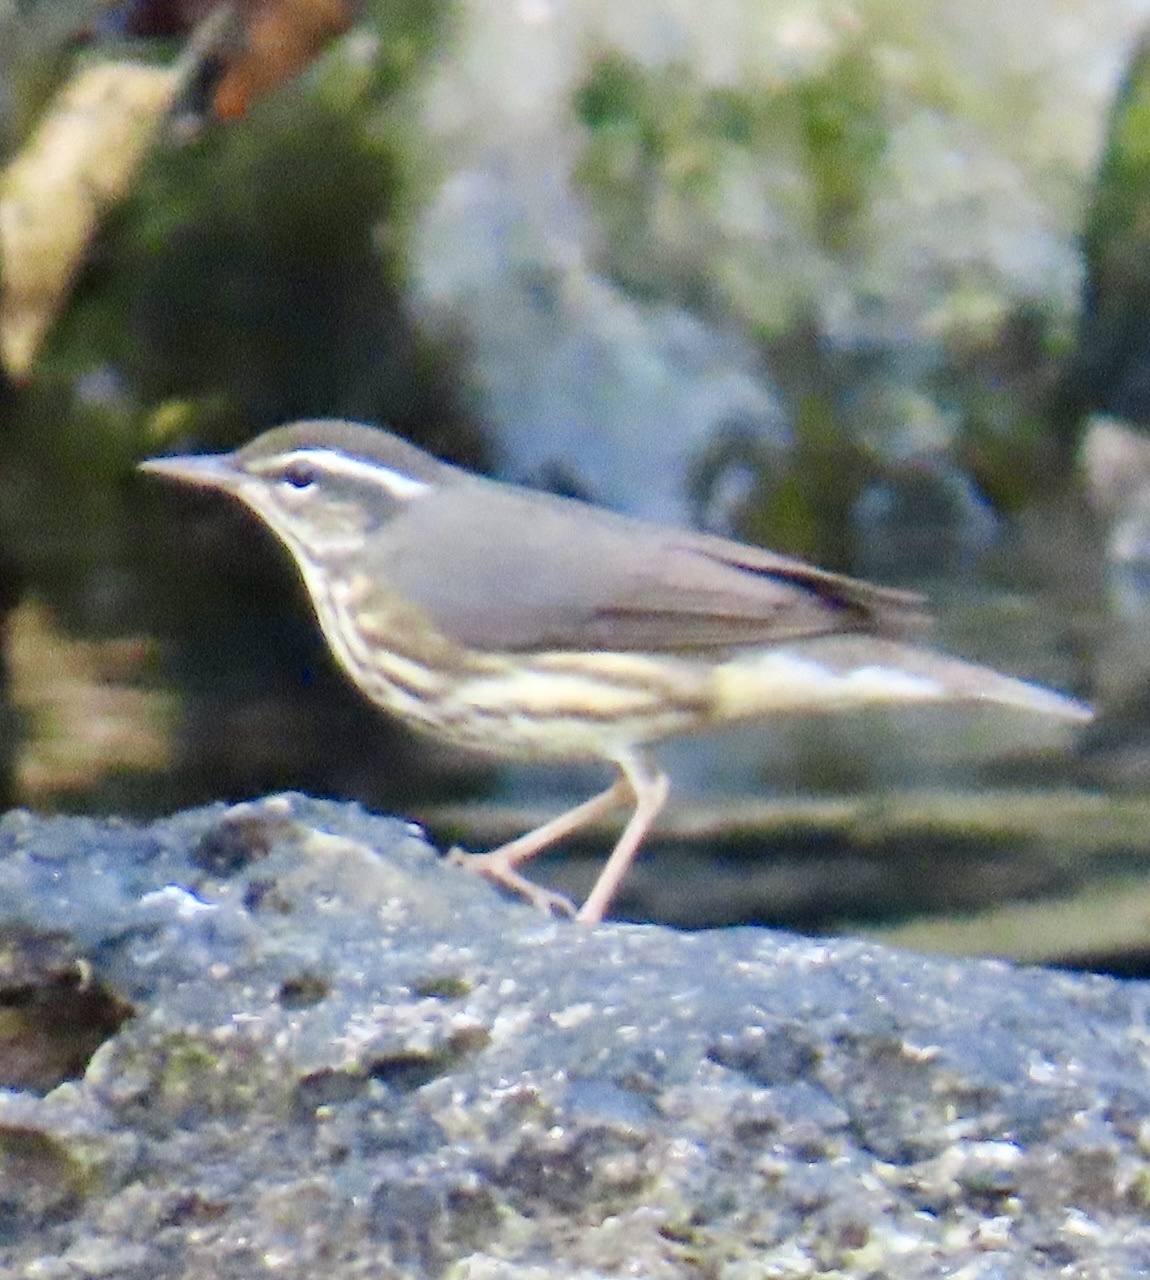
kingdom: Animalia
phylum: Chordata
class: Aves
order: Passeriformes
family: Parulidae
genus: Parkesia
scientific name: Parkesia noveboracensis
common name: Northern waterthrush
